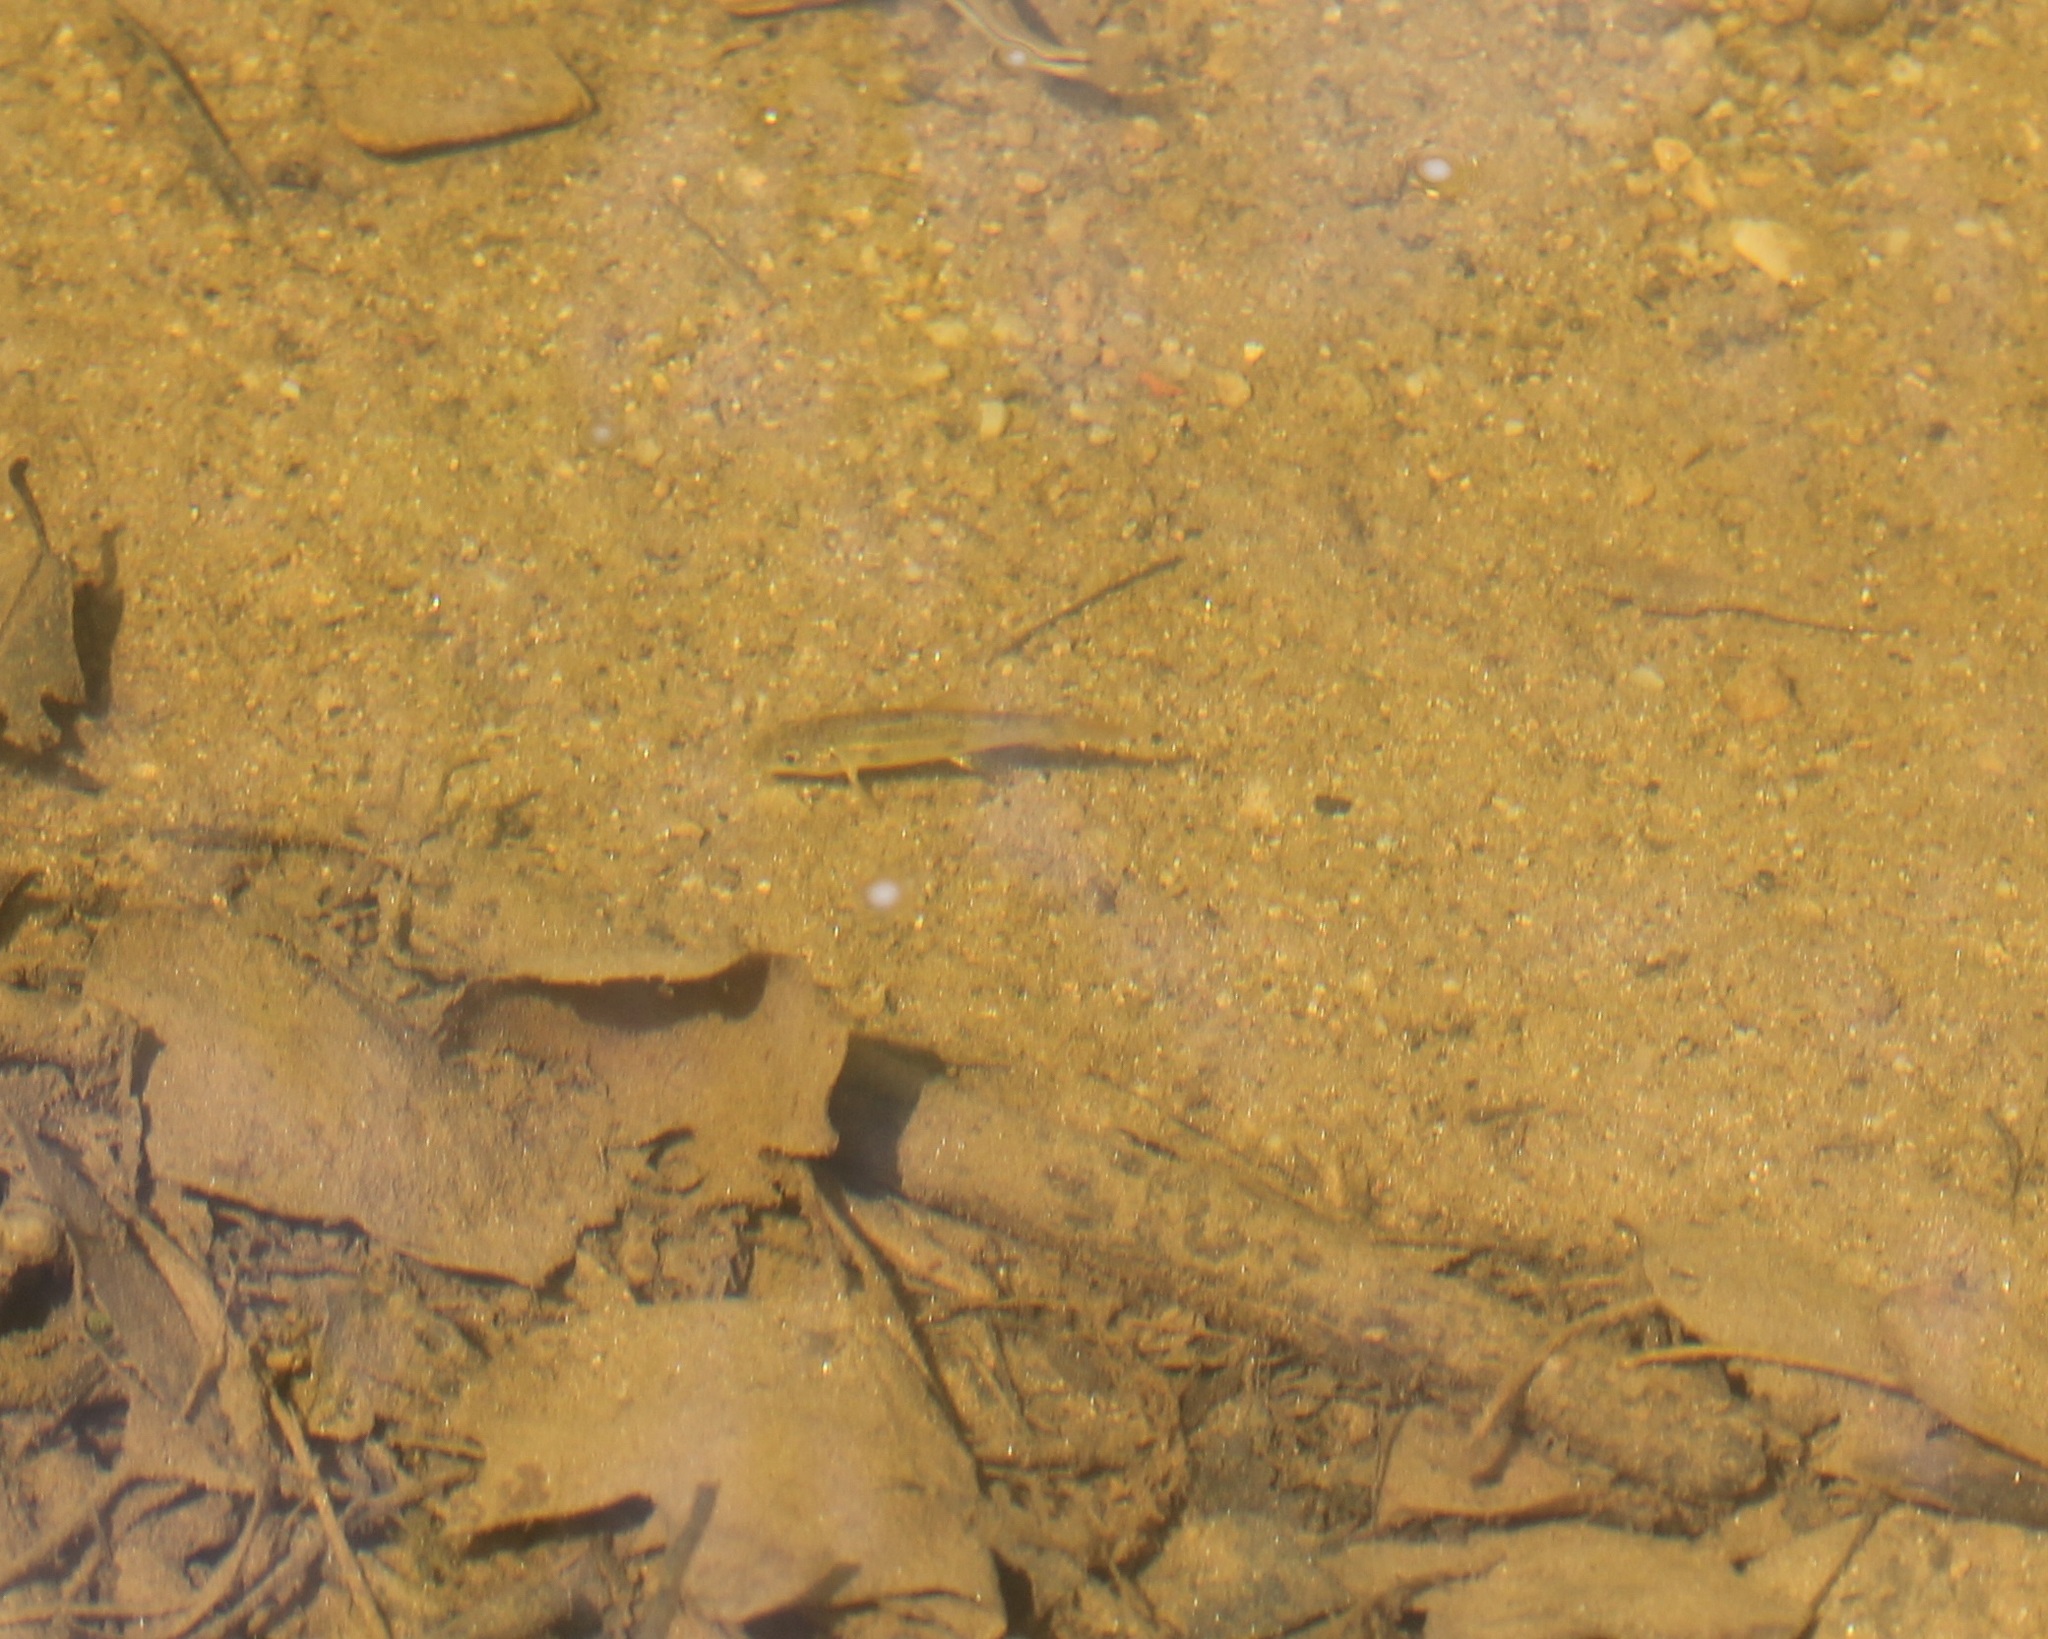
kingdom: Animalia
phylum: Chordata
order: Cypriniformes
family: Catostomidae
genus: Catostomus
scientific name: Catostomus commersonii
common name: White sucker
